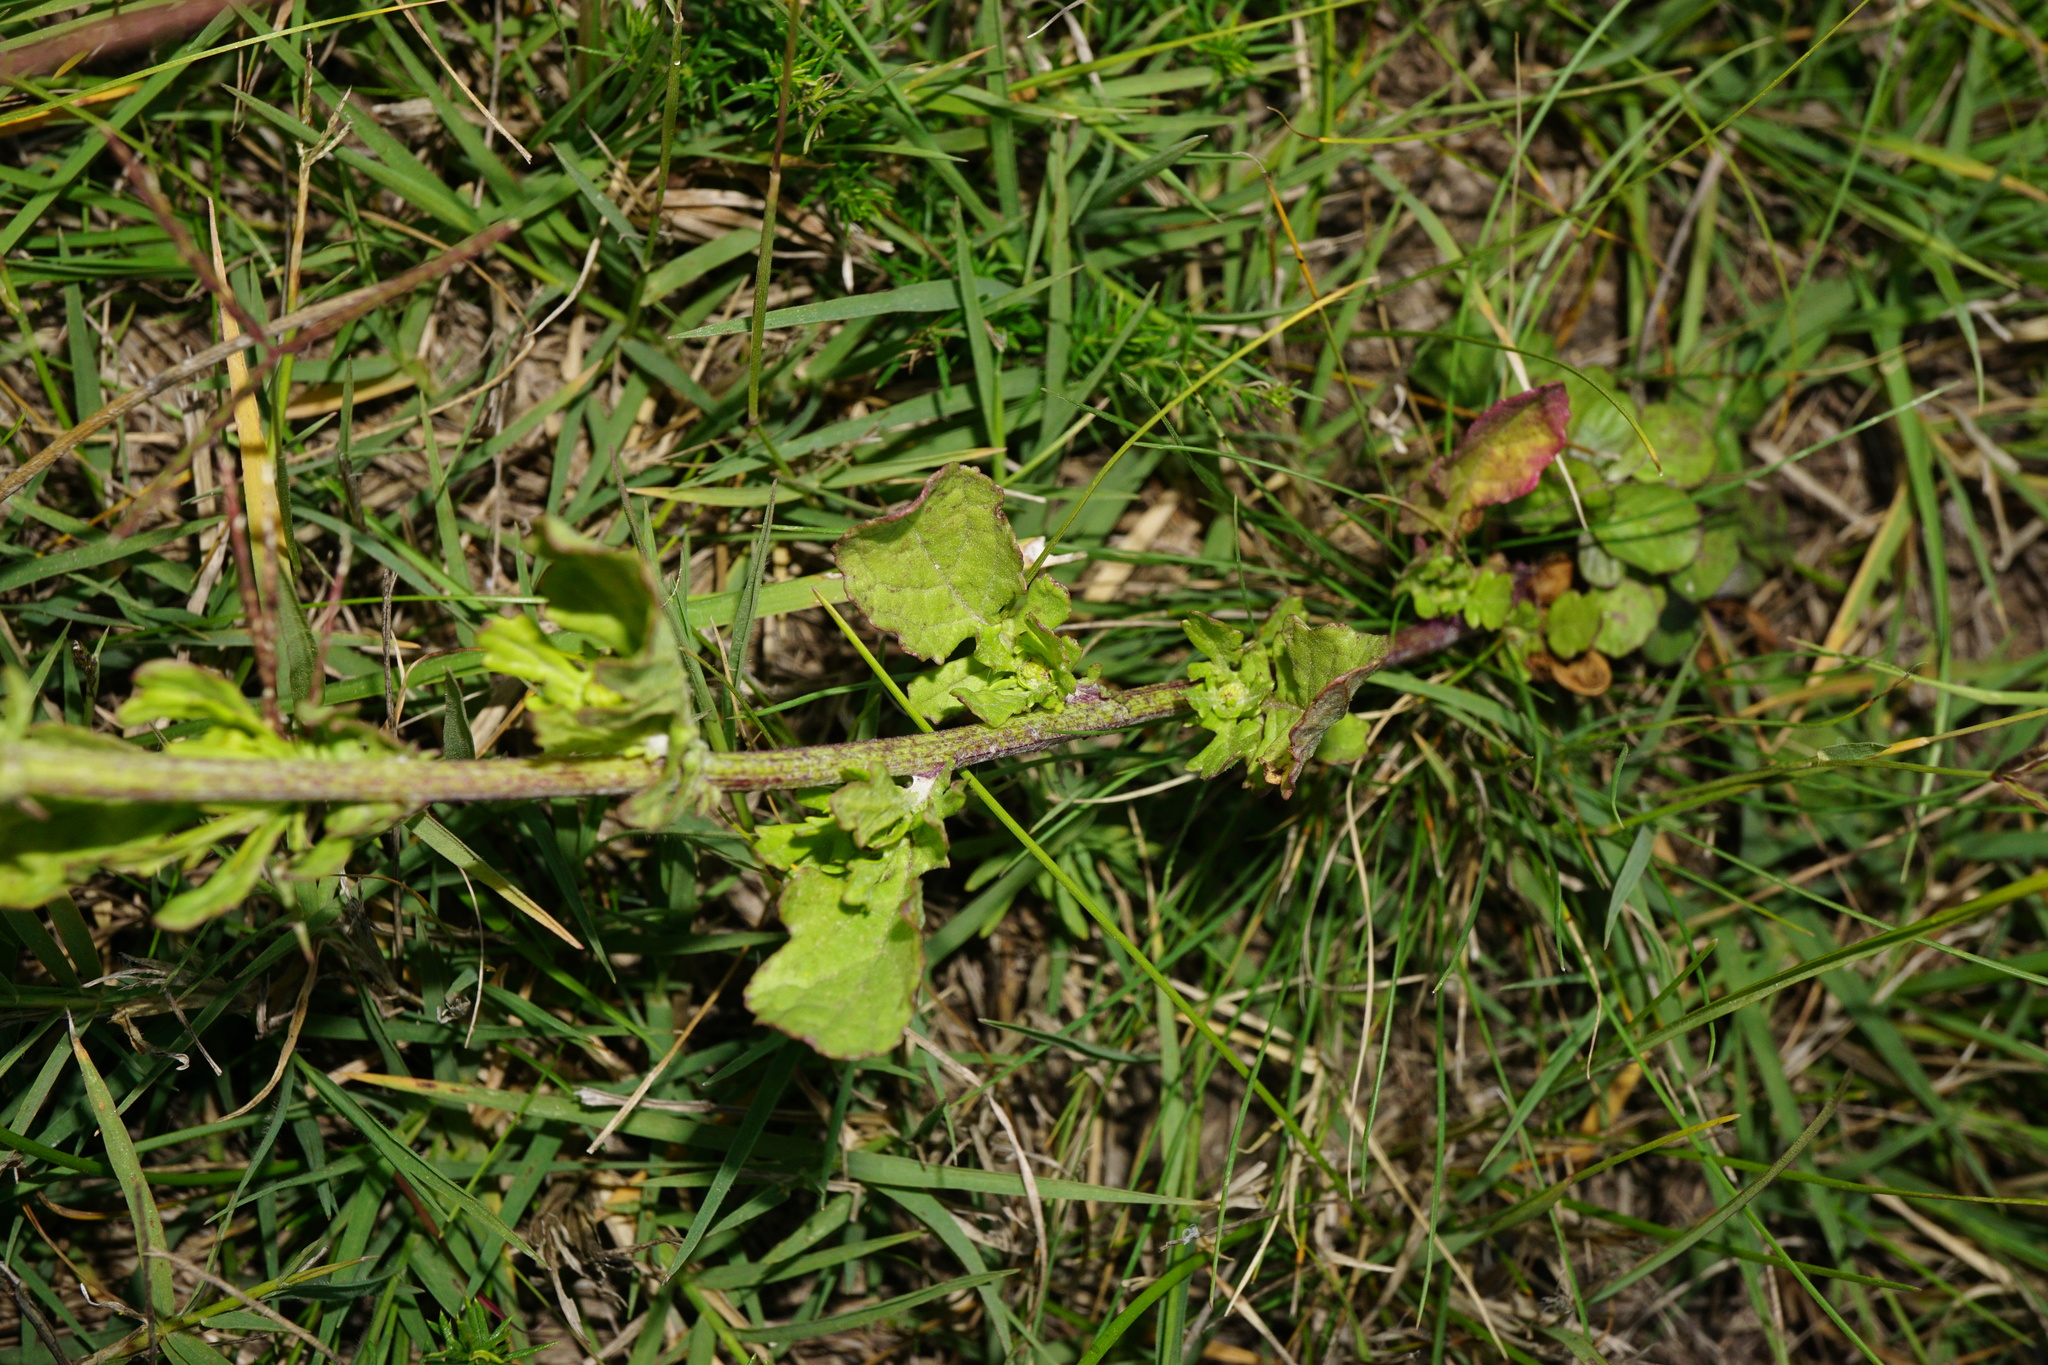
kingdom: Plantae
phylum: Tracheophyta
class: Magnoliopsida
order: Asterales
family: Asteraceae
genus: Jacobaea
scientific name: Jacobaea erratica
